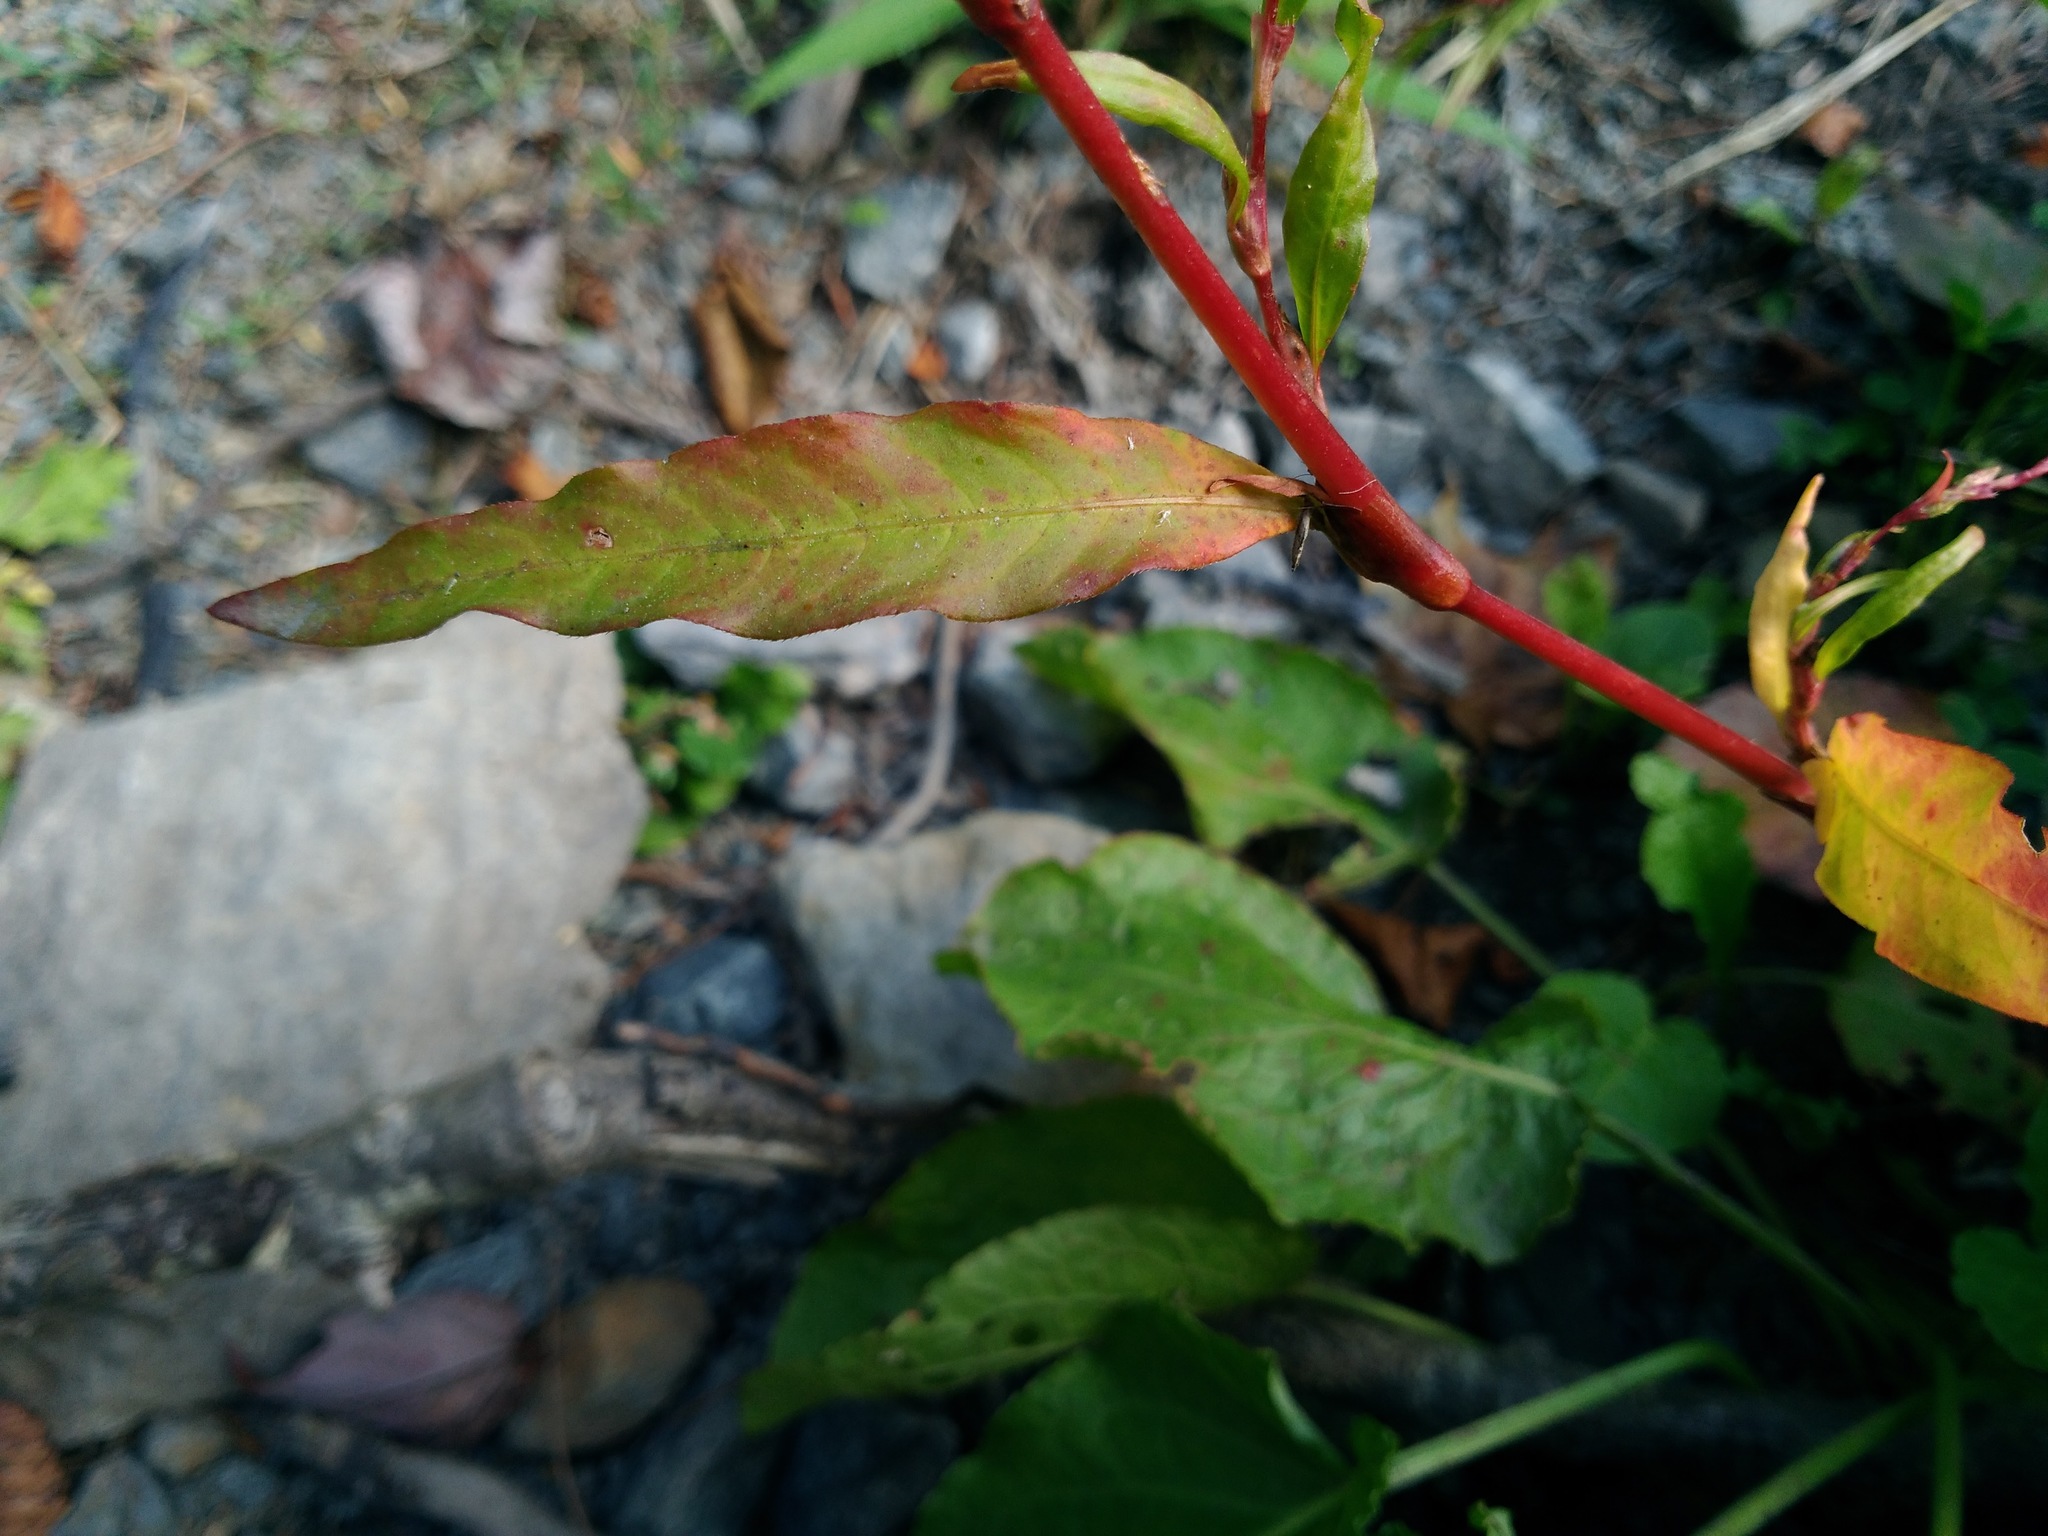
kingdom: Plantae
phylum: Tracheophyta
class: Magnoliopsida
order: Caryophyllales
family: Polygonaceae
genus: Persicaria
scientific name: Persicaria hydropiper
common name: Water-pepper
